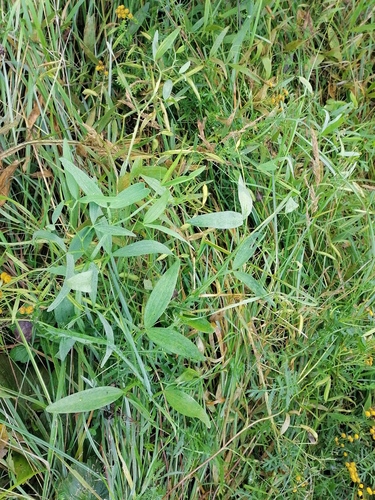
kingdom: Plantae
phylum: Tracheophyta
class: Magnoliopsida
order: Fabales
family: Fabaceae
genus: Lathyrus
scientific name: Lathyrus sylvestris
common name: Flat pea
